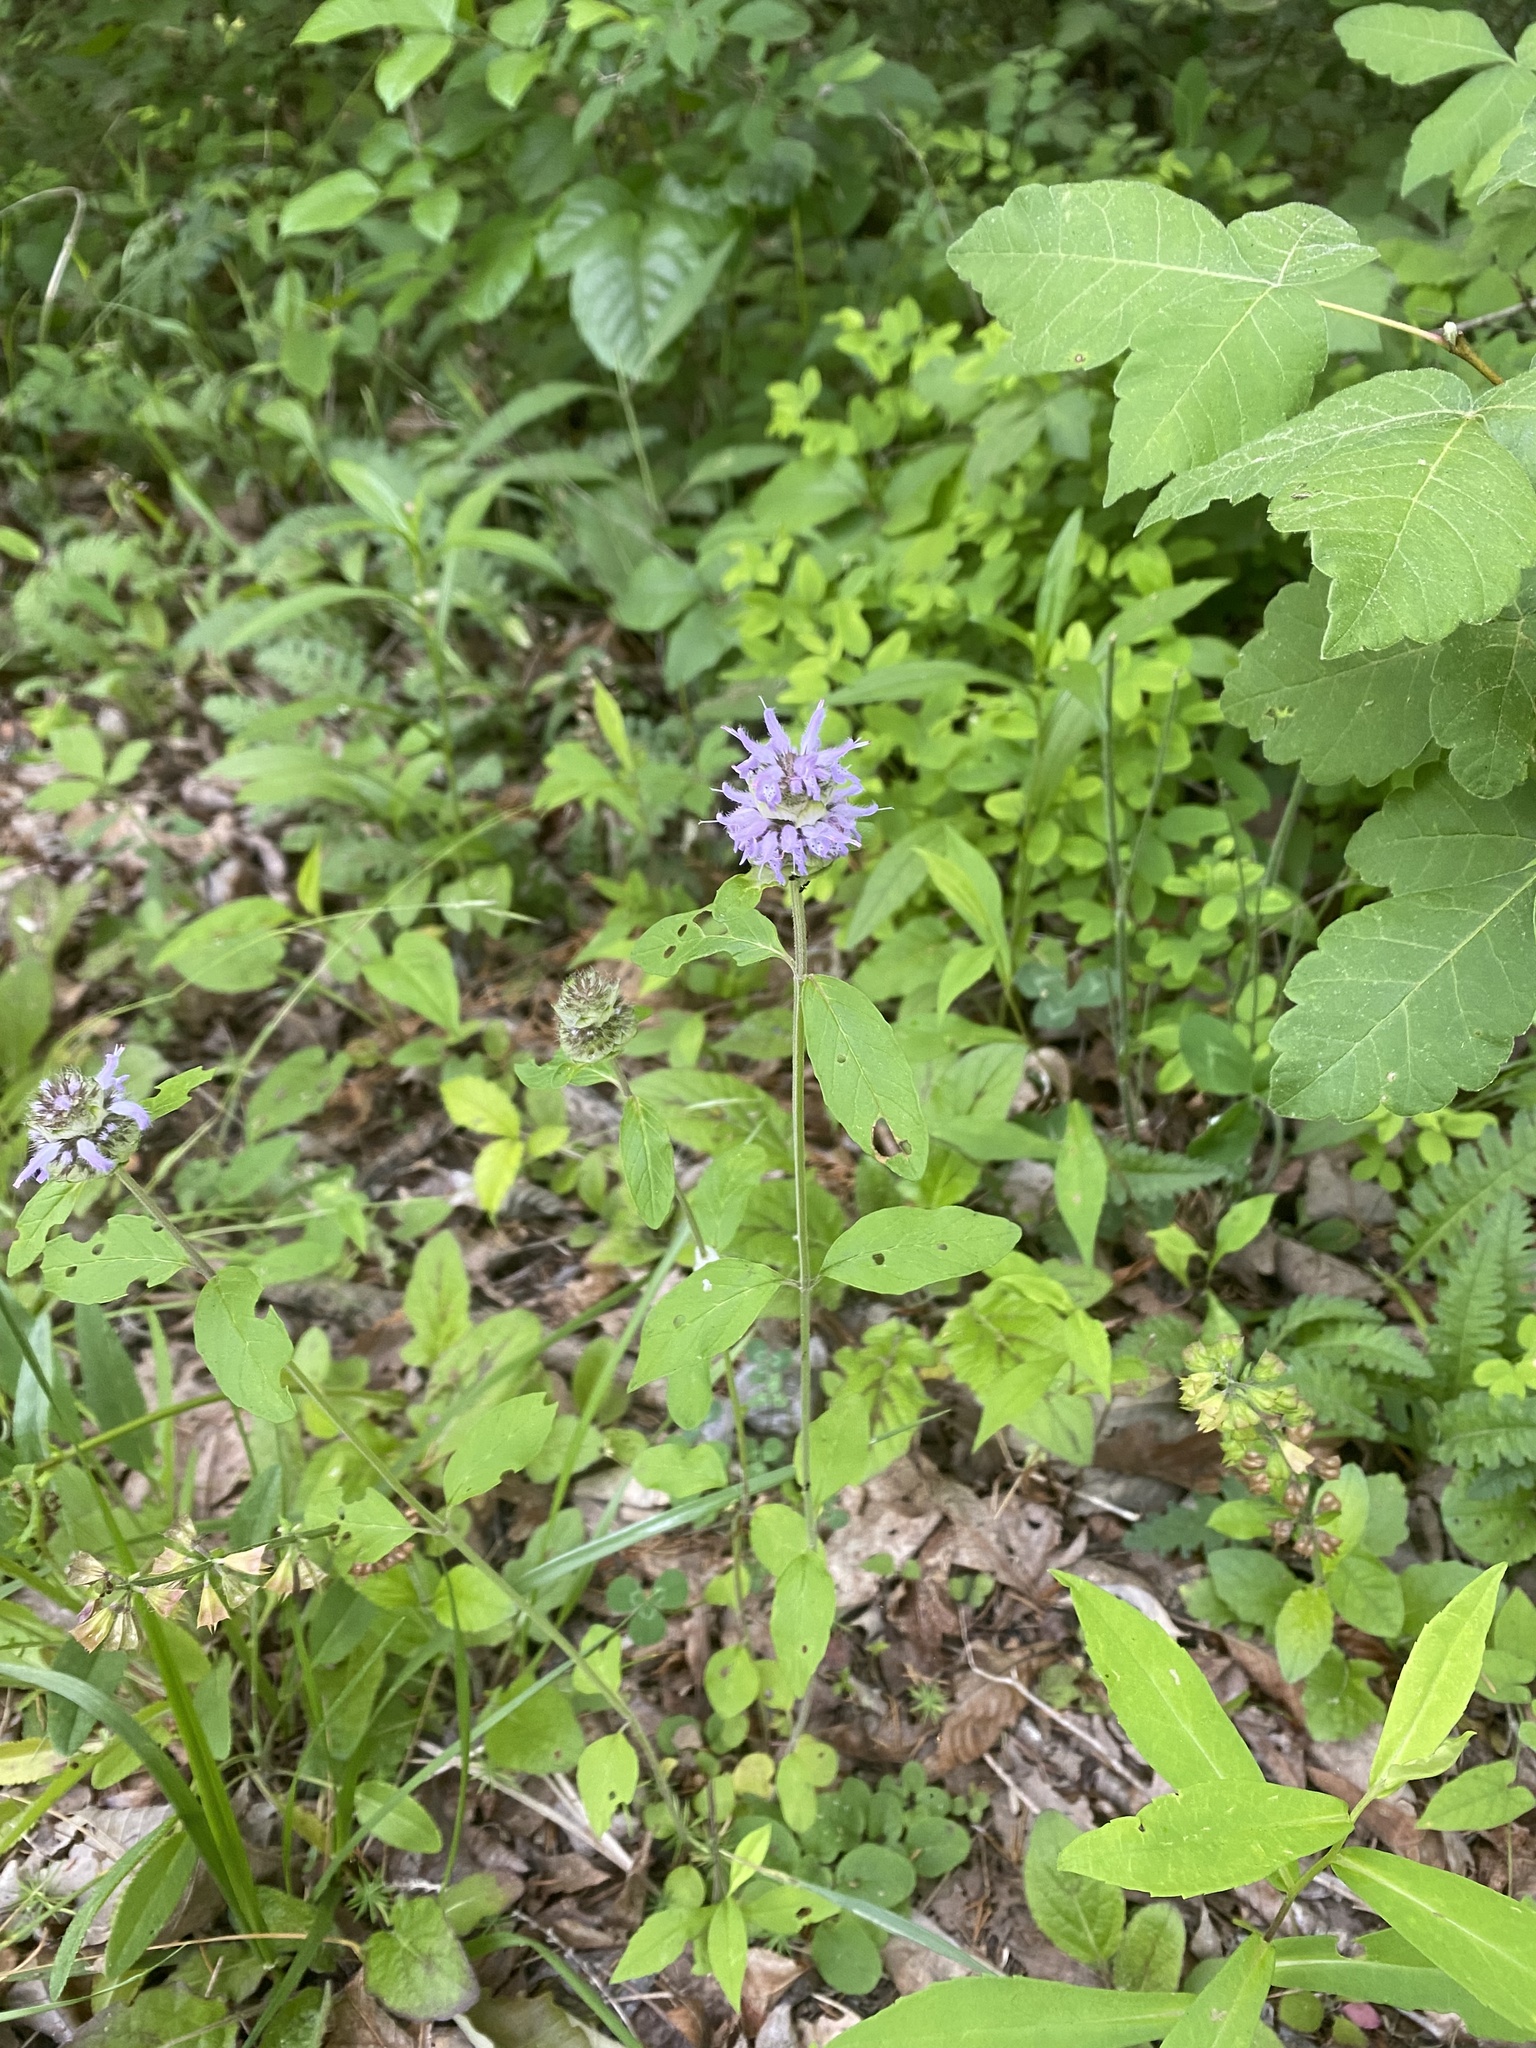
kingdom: Plantae
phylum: Tracheophyta
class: Magnoliopsida
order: Lamiales
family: Lamiaceae
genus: Blephilia
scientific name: Blephilia ciliata
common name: Downy blephilia
